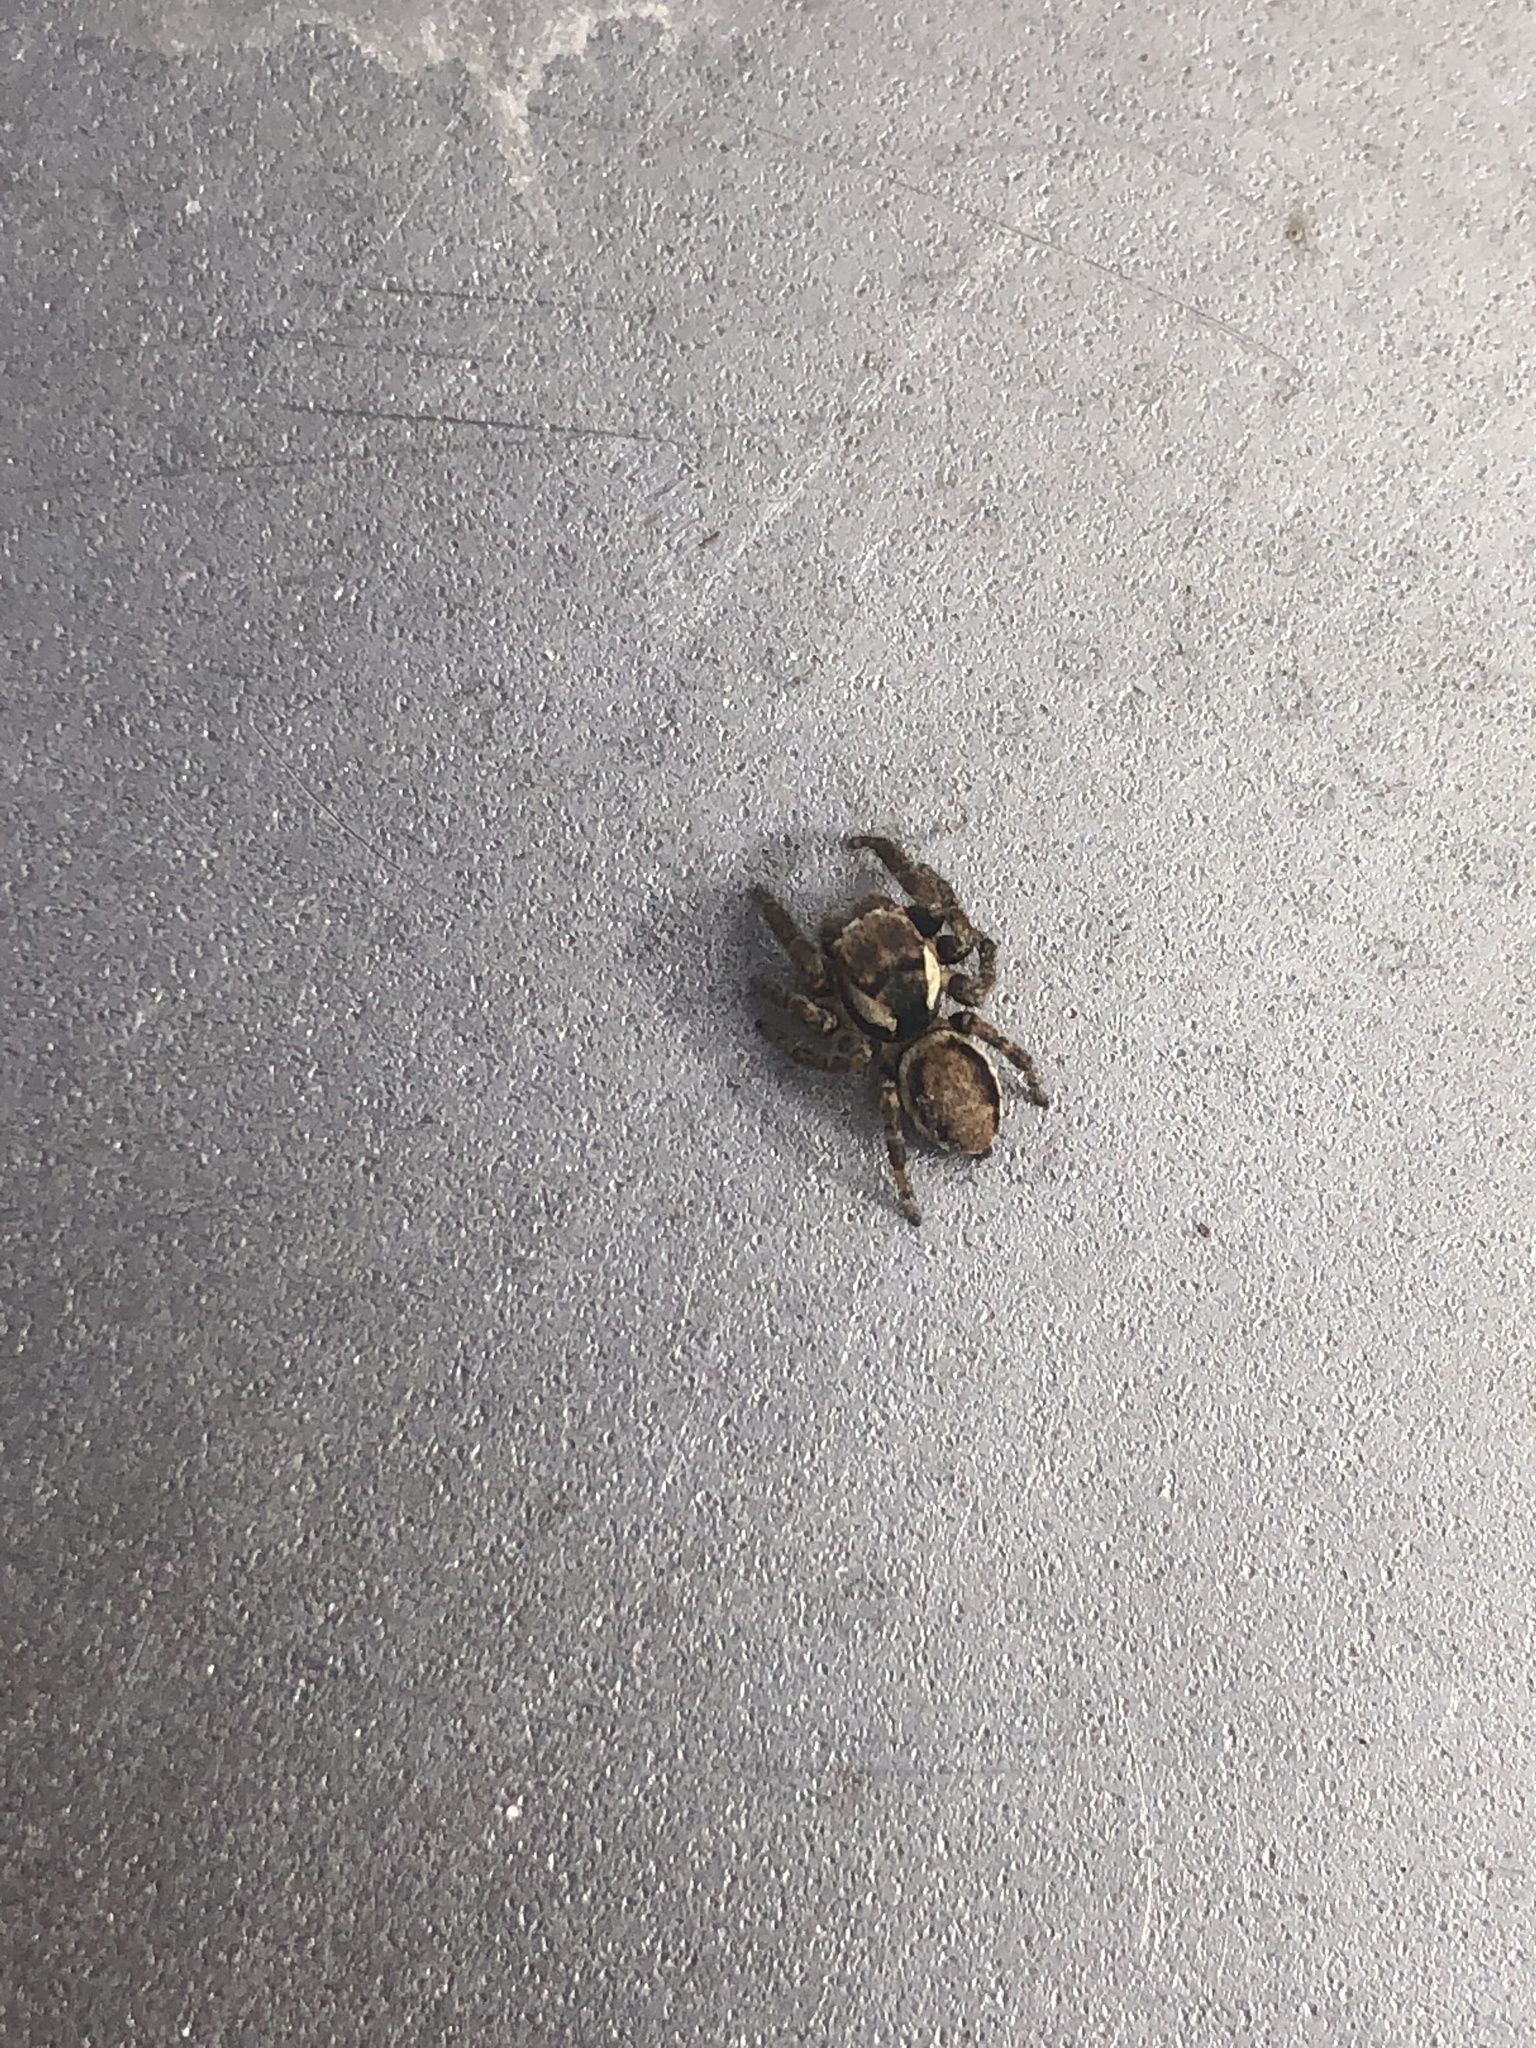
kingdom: Animalia
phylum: Arthropoda
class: Arachnida
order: Araneae
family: Salticidae
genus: Evarcha
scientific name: Evarcha falcata
